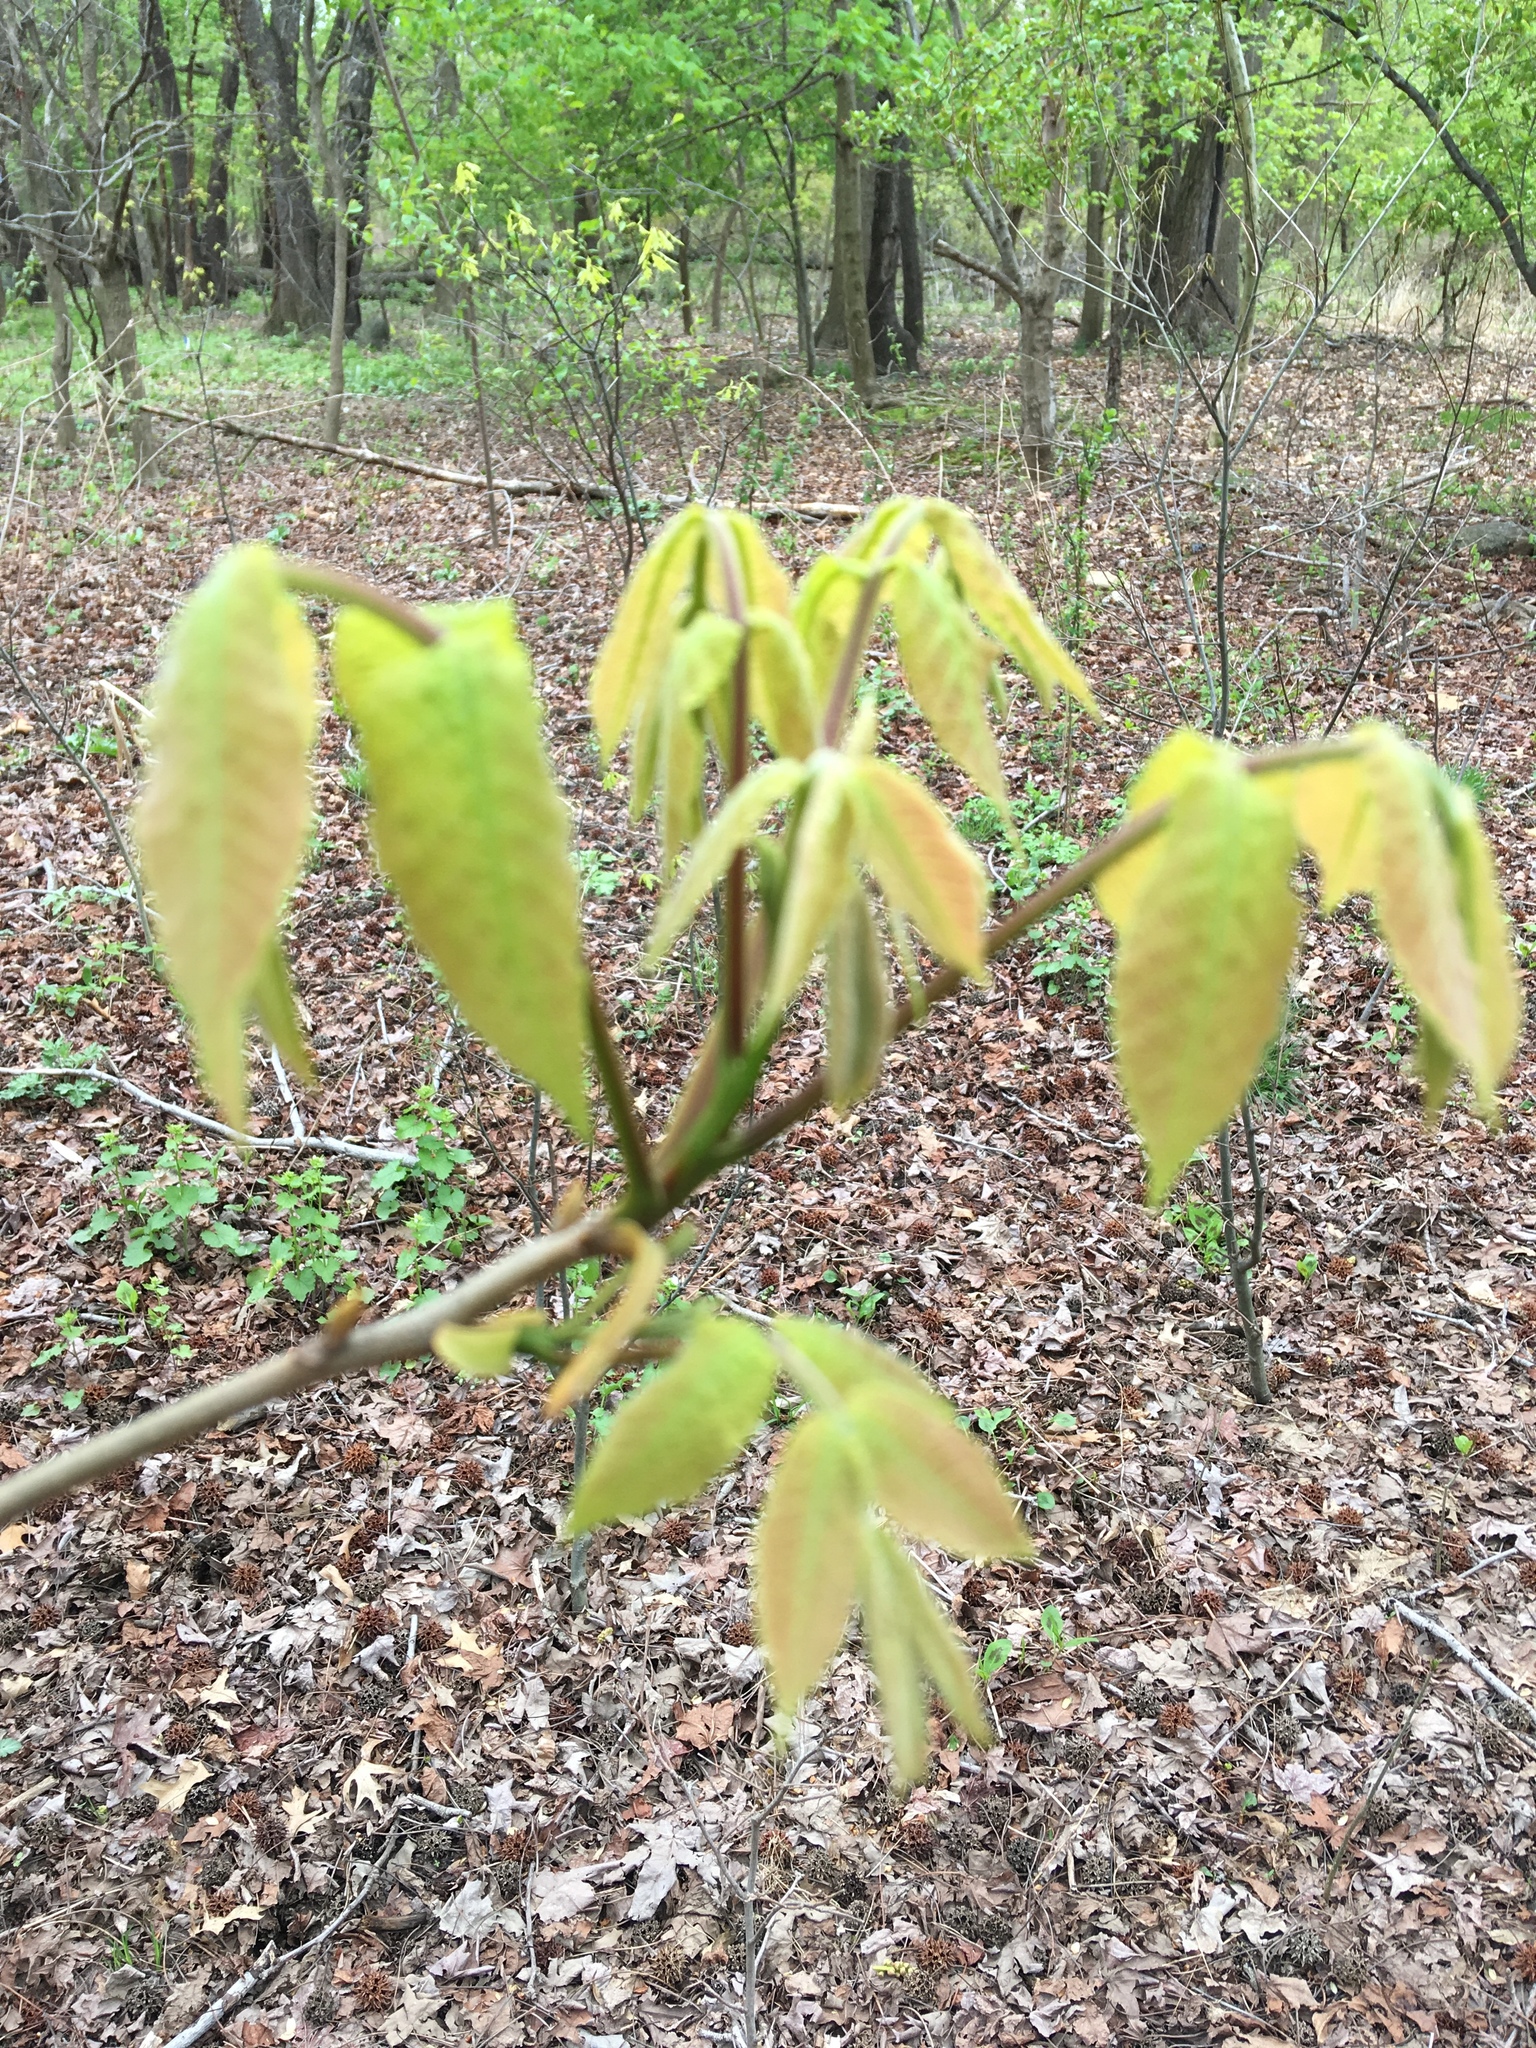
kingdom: Plantae
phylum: Tracheophyta
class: Magnoliopsida
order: Fagales
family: Juglandaceae
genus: Carya
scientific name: Carya cordiformis
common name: Bitternut hickory
